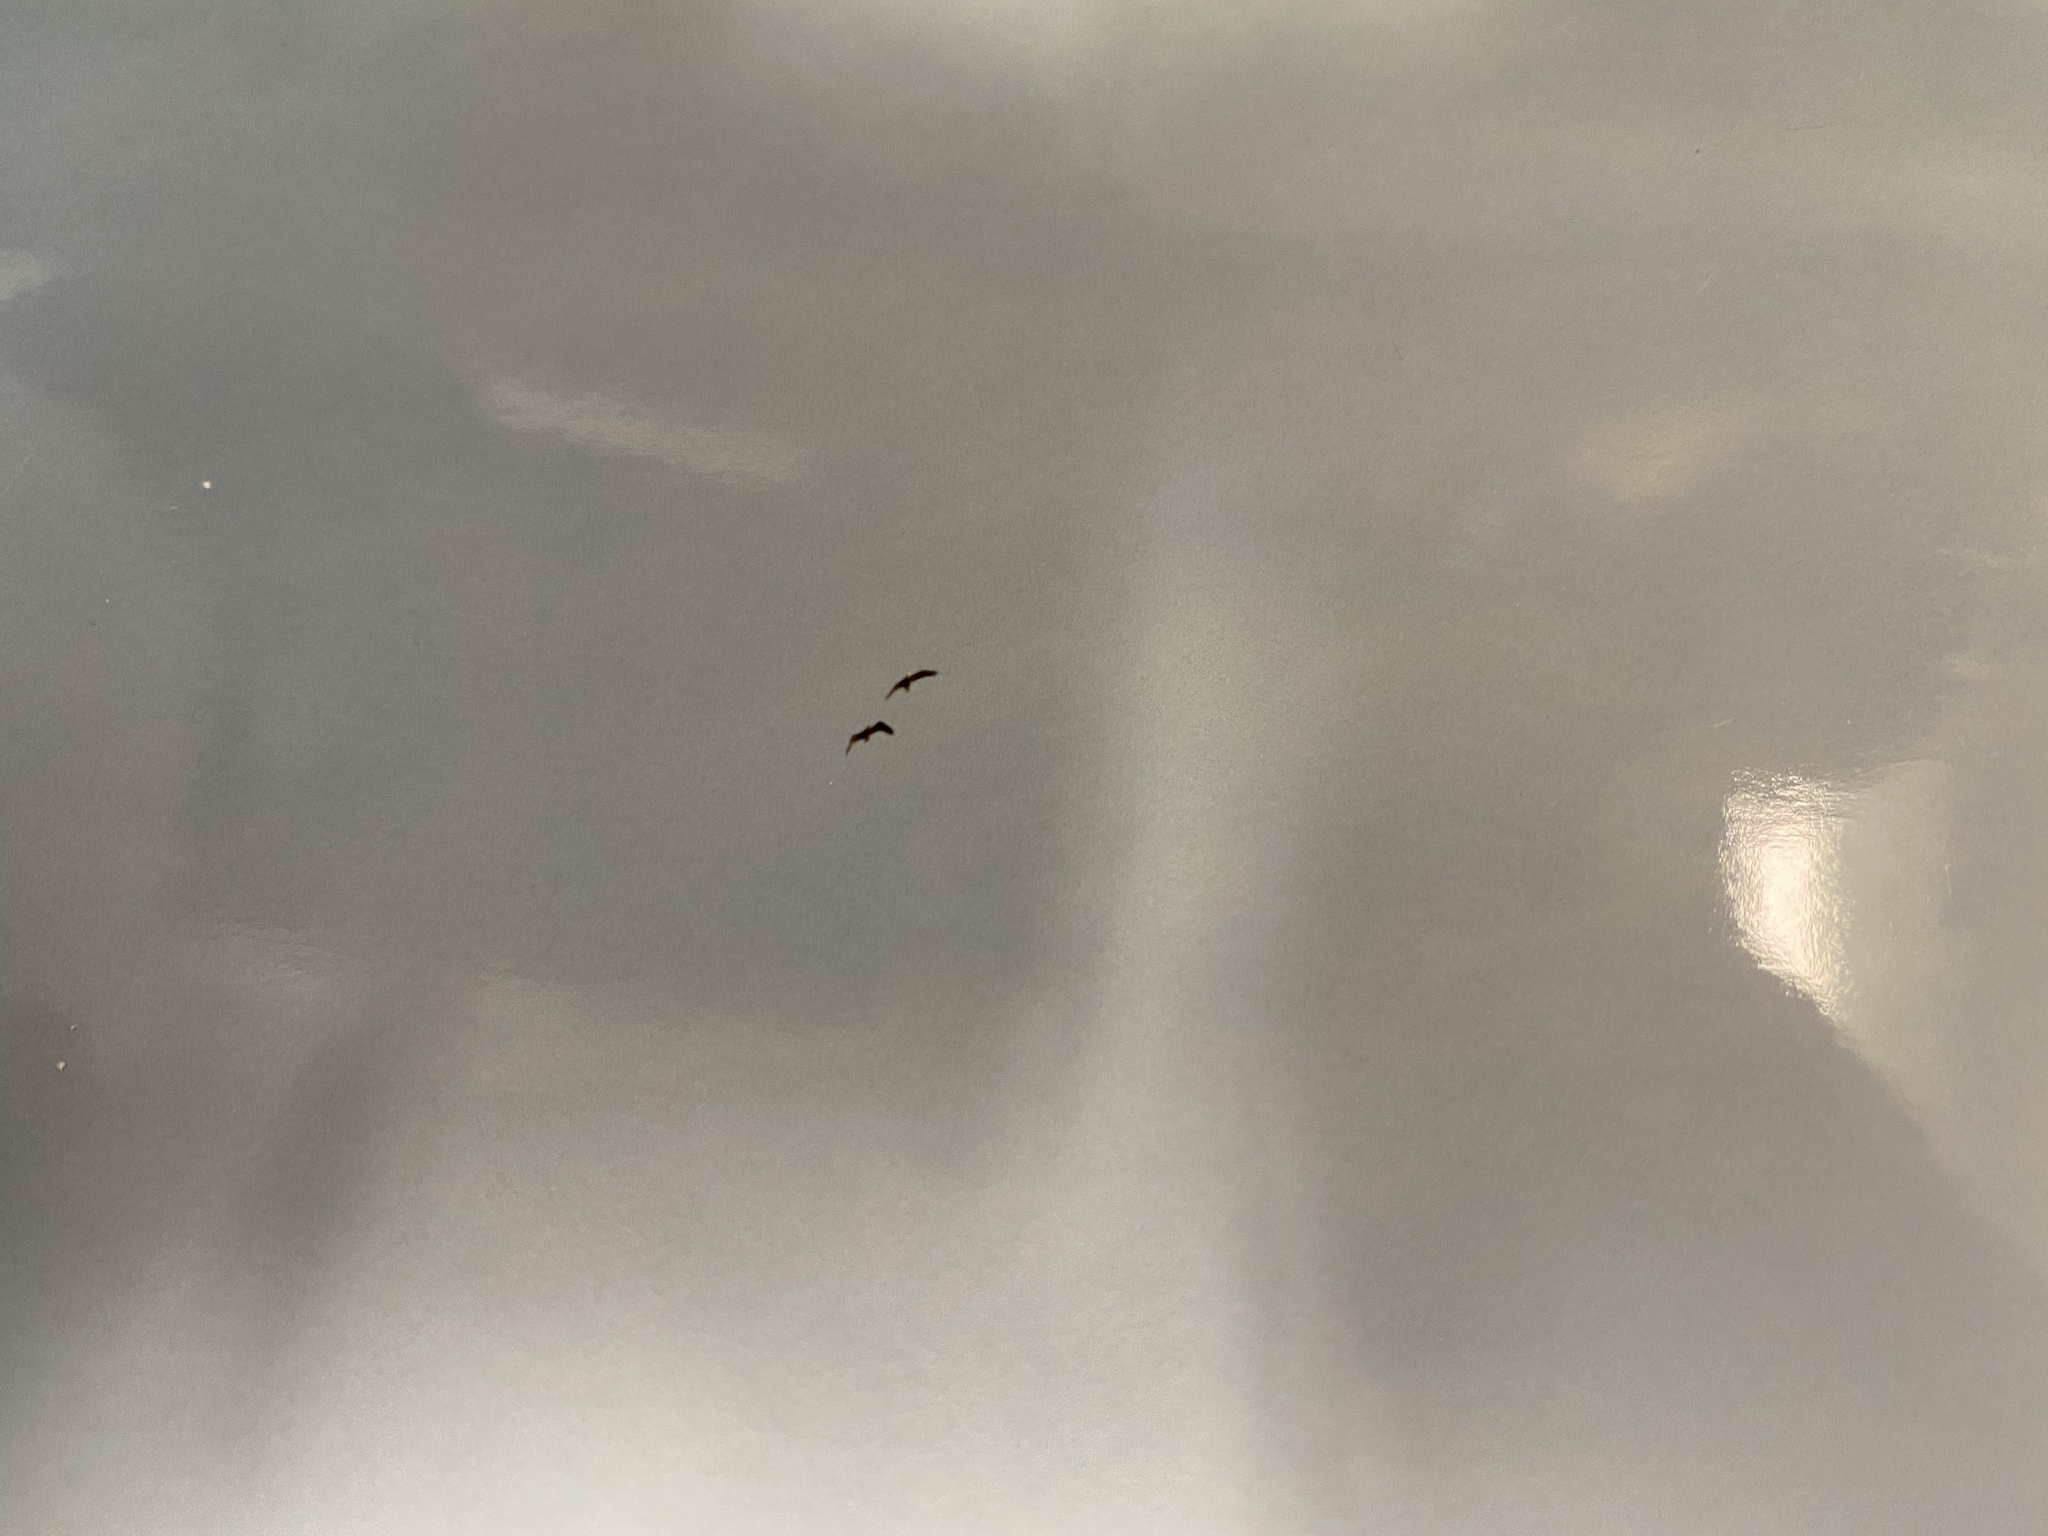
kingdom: Animalia
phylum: Chordata
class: Aves
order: Accipitriformes
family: Accipitridae
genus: Haliaeetus
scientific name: Haliaeetus leucocephalus
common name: Bald eagle
